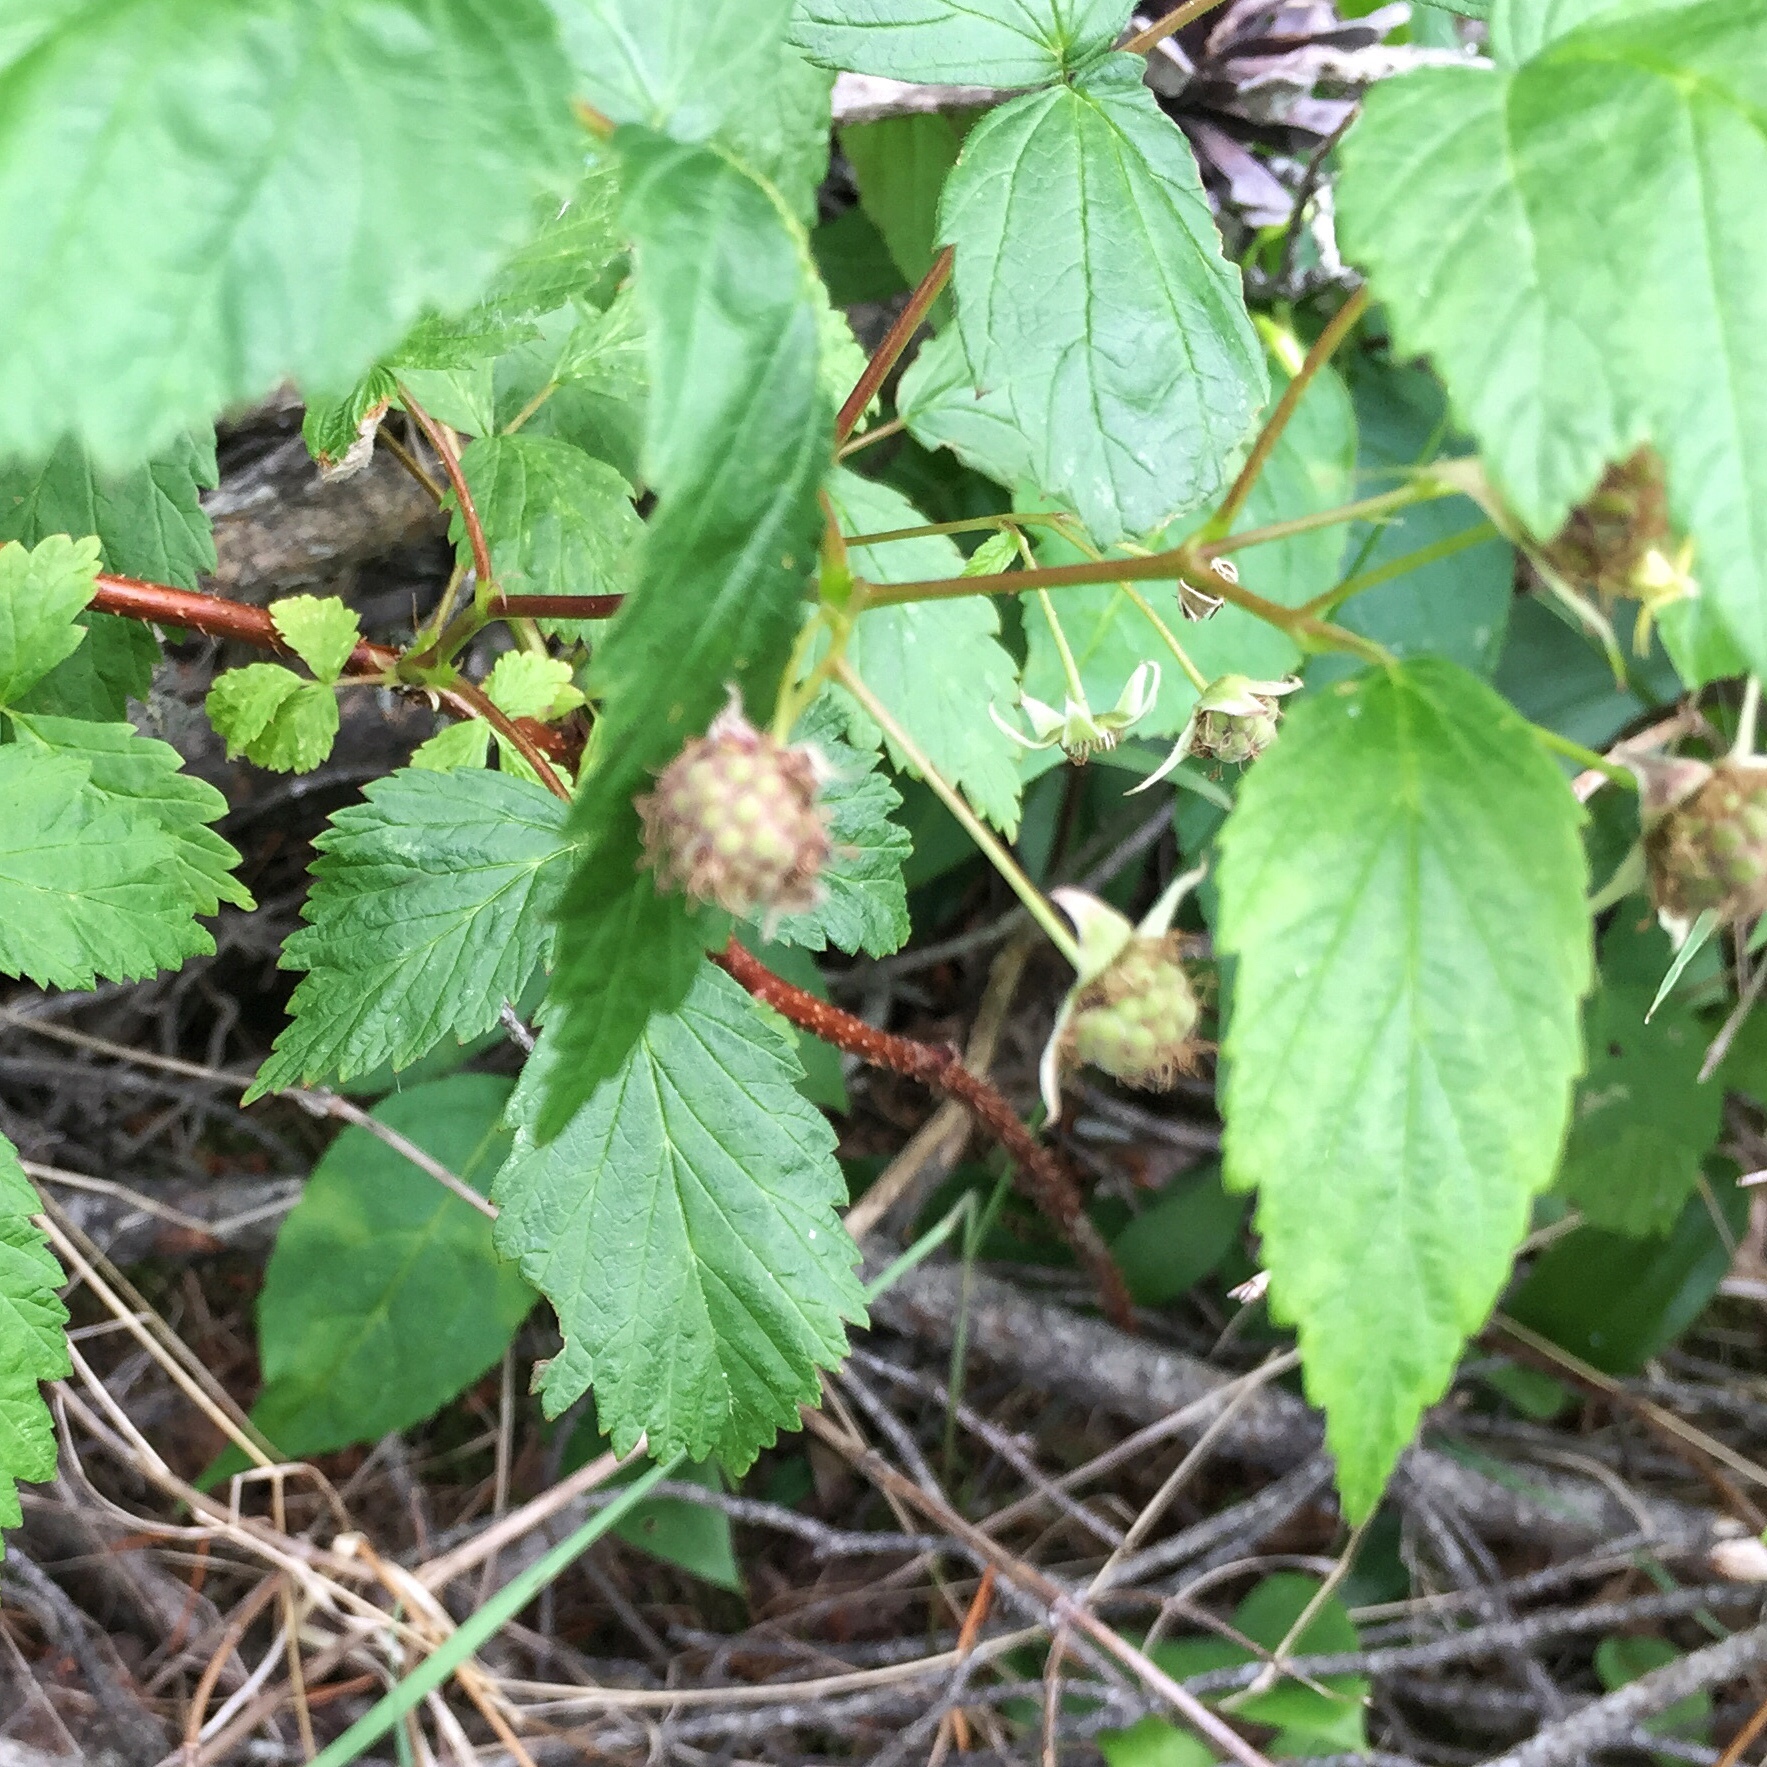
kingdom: Plantae
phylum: Tracheophyta
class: Magnoliopsida
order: Rosales
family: Rosaceae
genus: Rubus
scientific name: Rubus idaeus
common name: Raspberry
